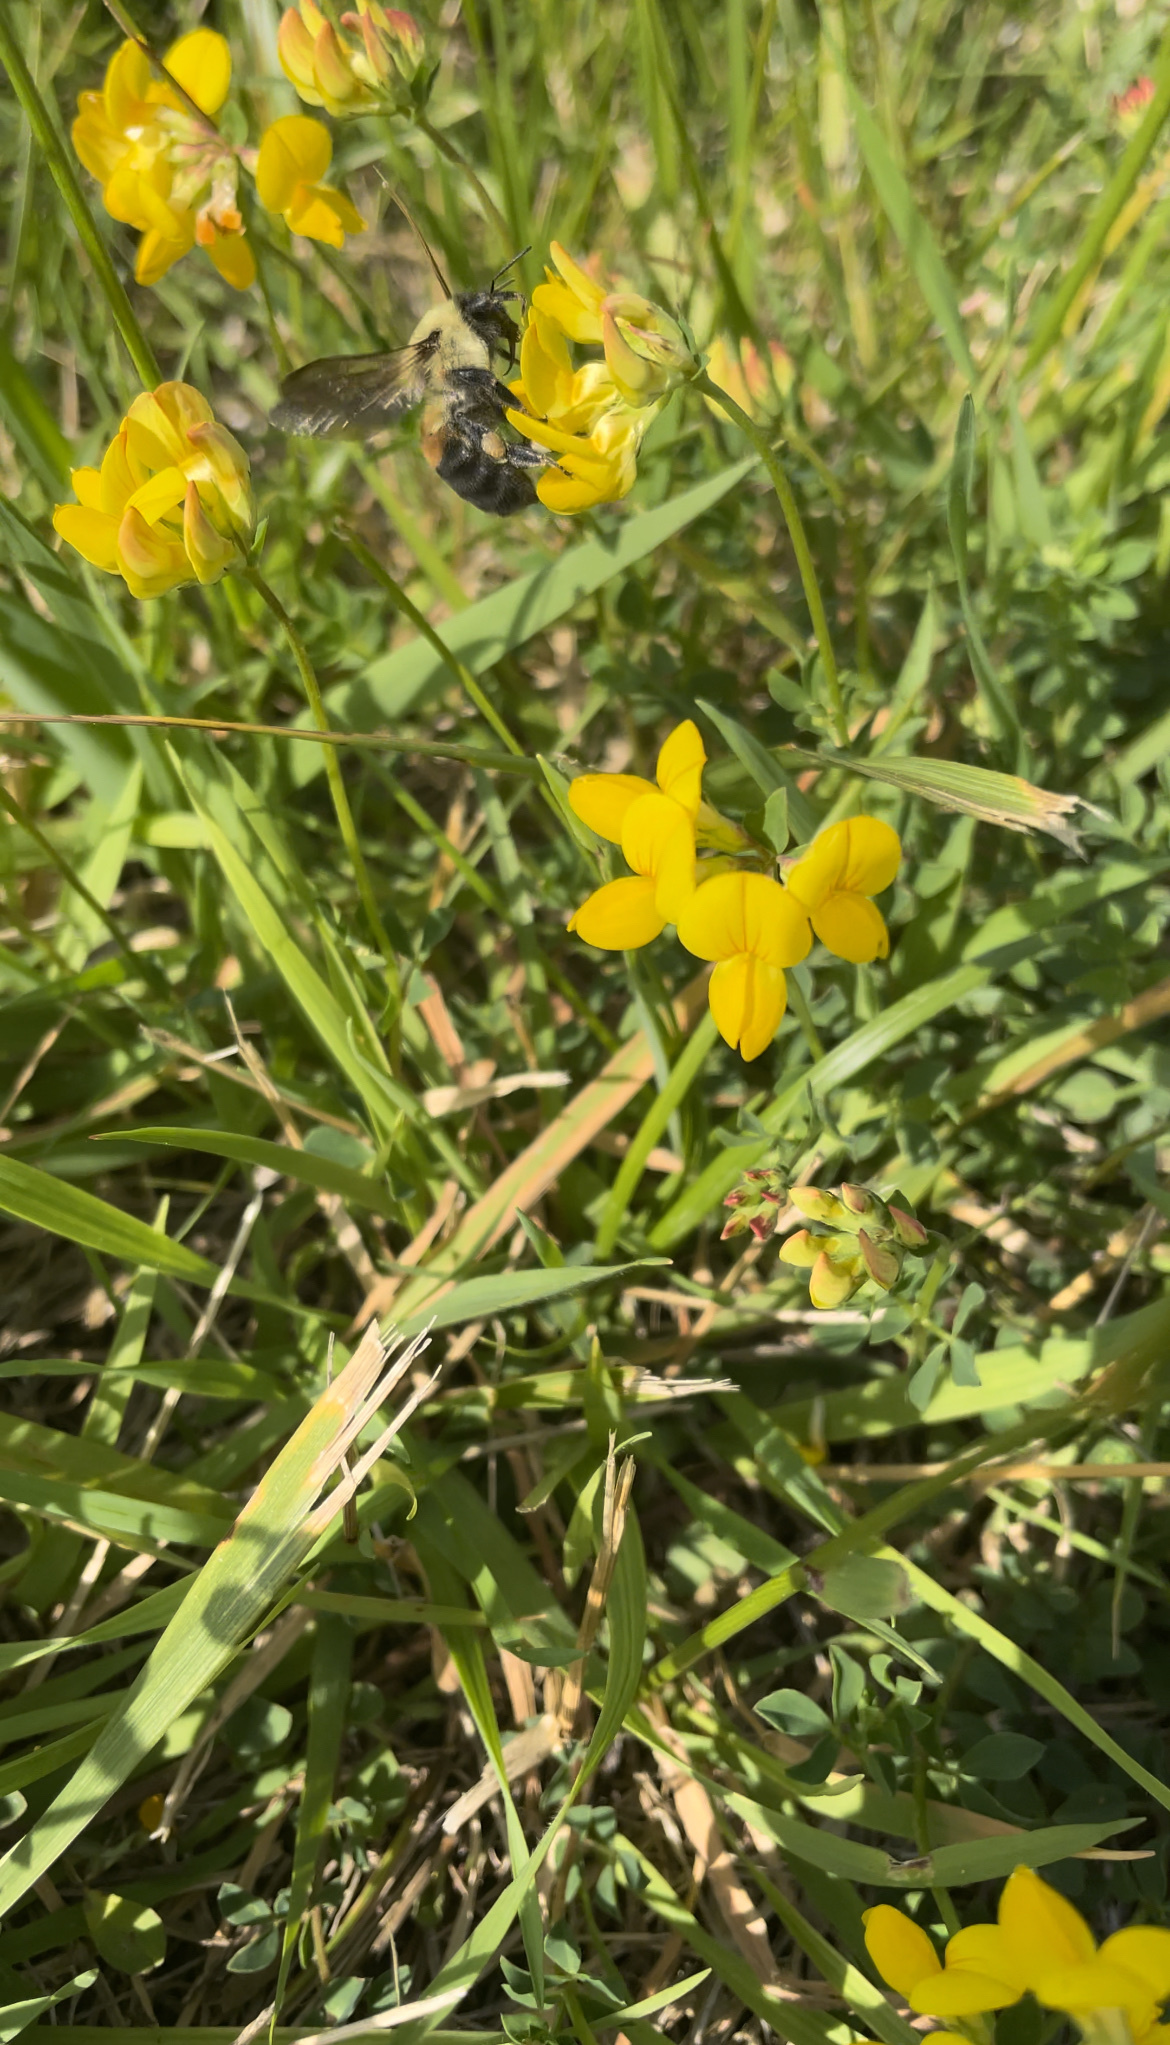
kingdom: Animalia
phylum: Arthropoda
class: Insecta
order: Hymenoptera
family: Apidae
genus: Bombus
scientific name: Bombus griseocollis
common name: Brown-belted bumble bee
